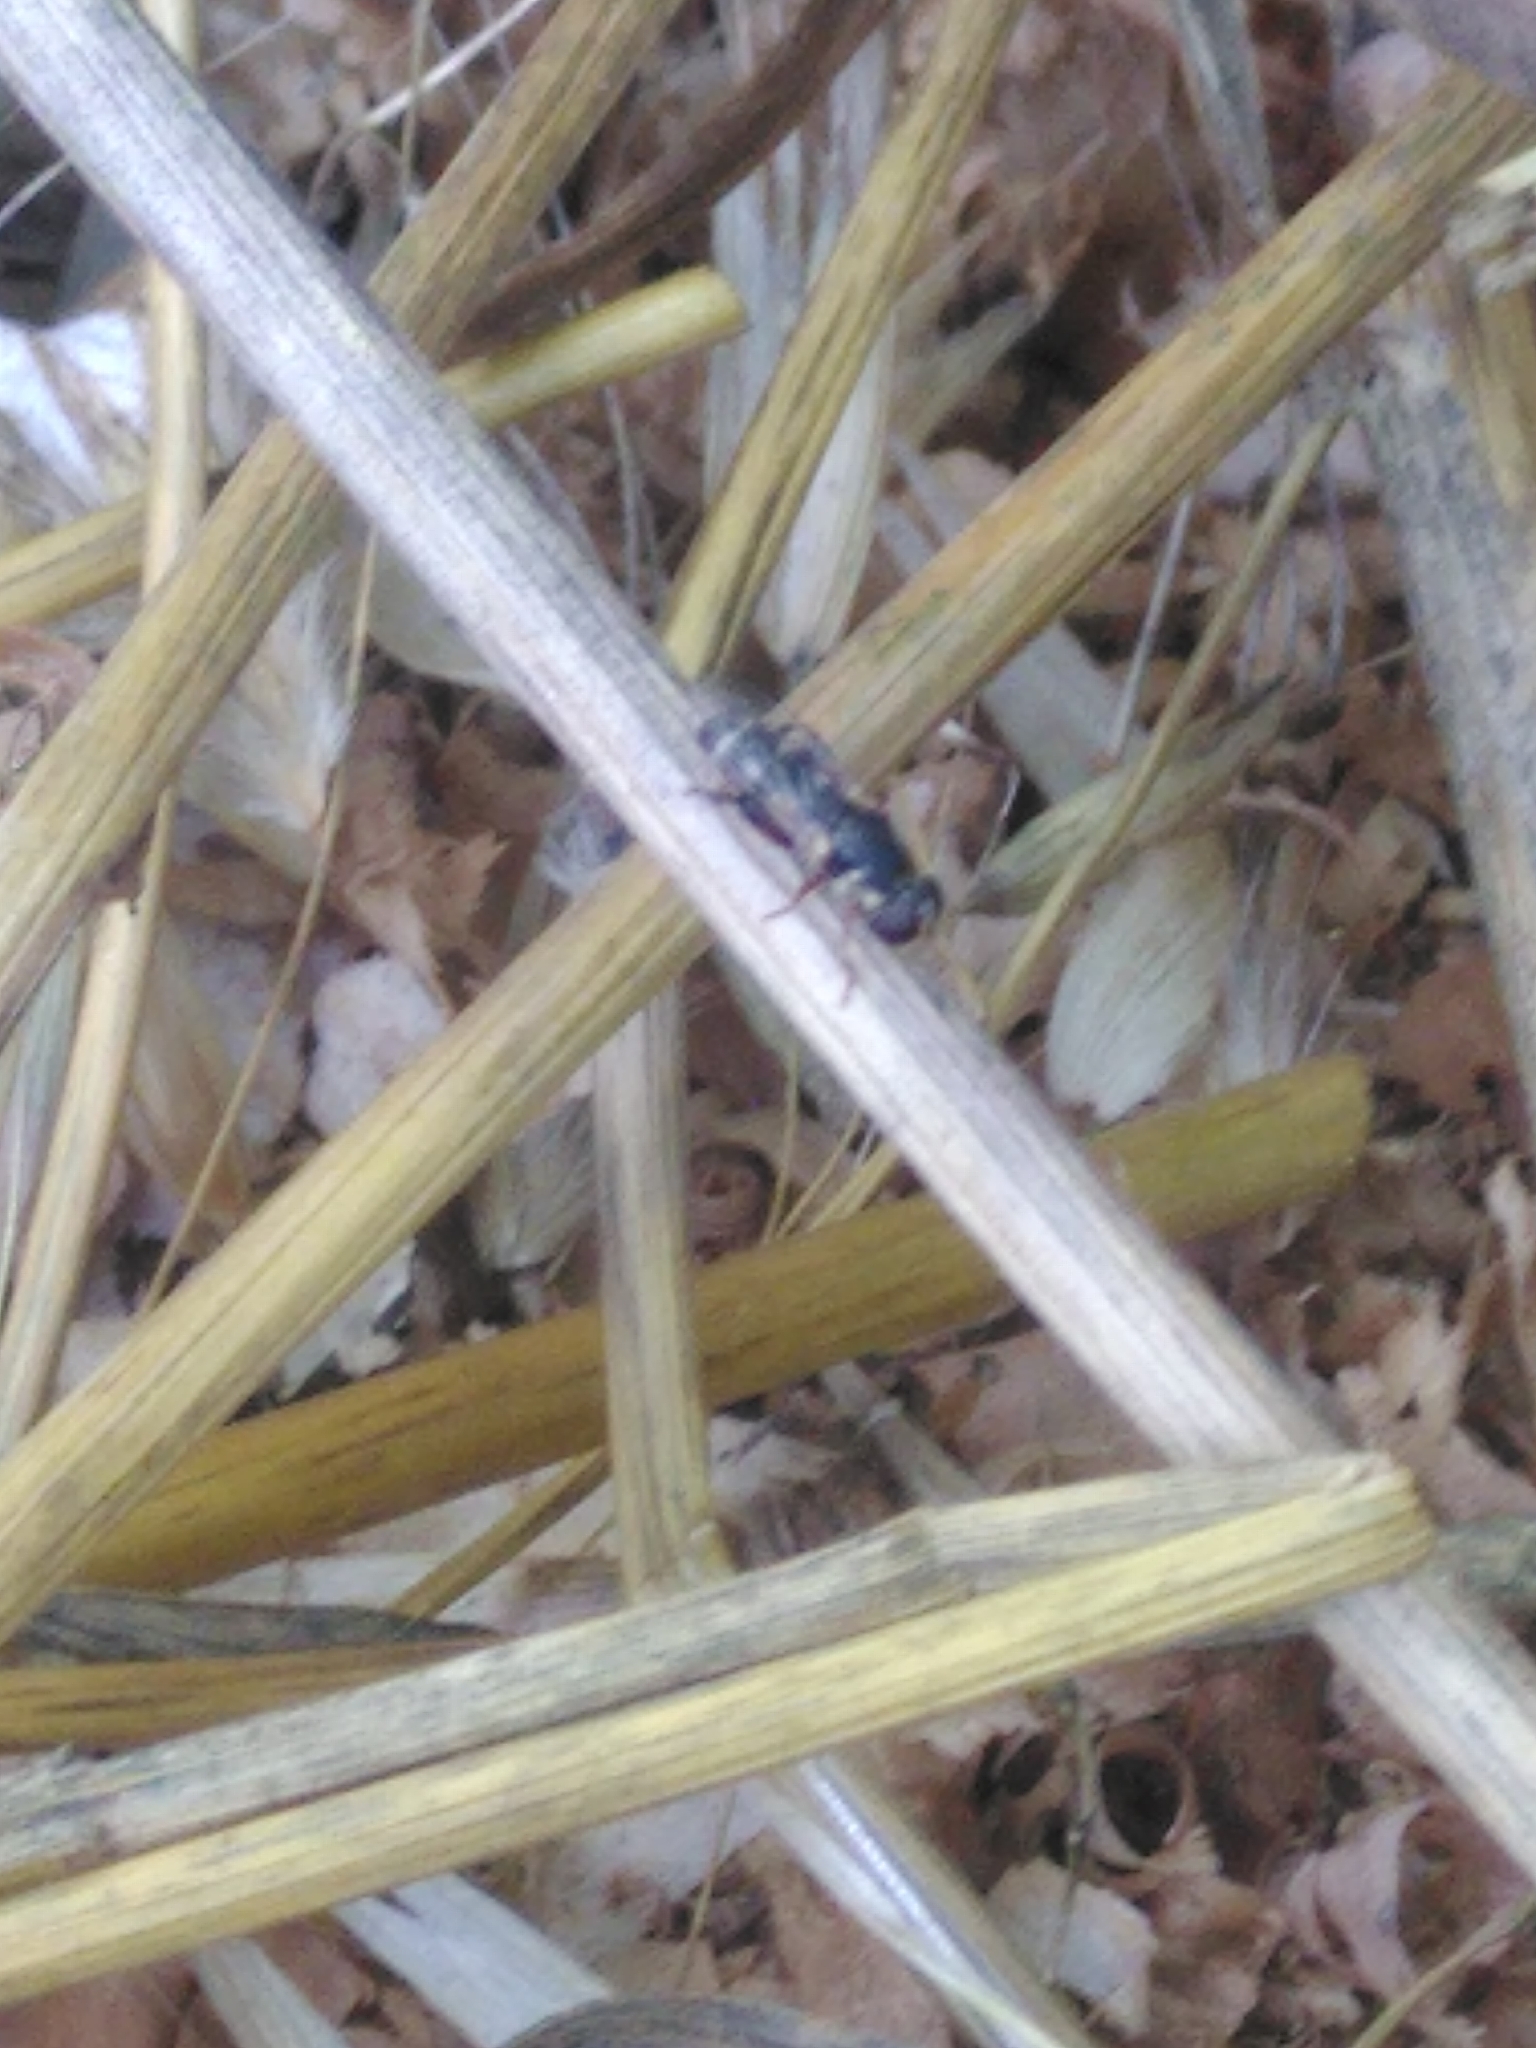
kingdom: Animalia
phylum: Arthropoda
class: Insecta
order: Diptera
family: Syrphidae
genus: Syritta
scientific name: Syritta pipiens
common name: Hover fly
